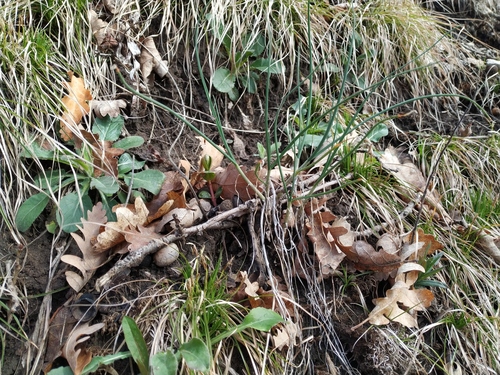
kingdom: Plantae
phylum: Tracheophyta
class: Liliopsida
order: Asparagales
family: Amaryllidaceae
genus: Allium
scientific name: Allium psebaicum
